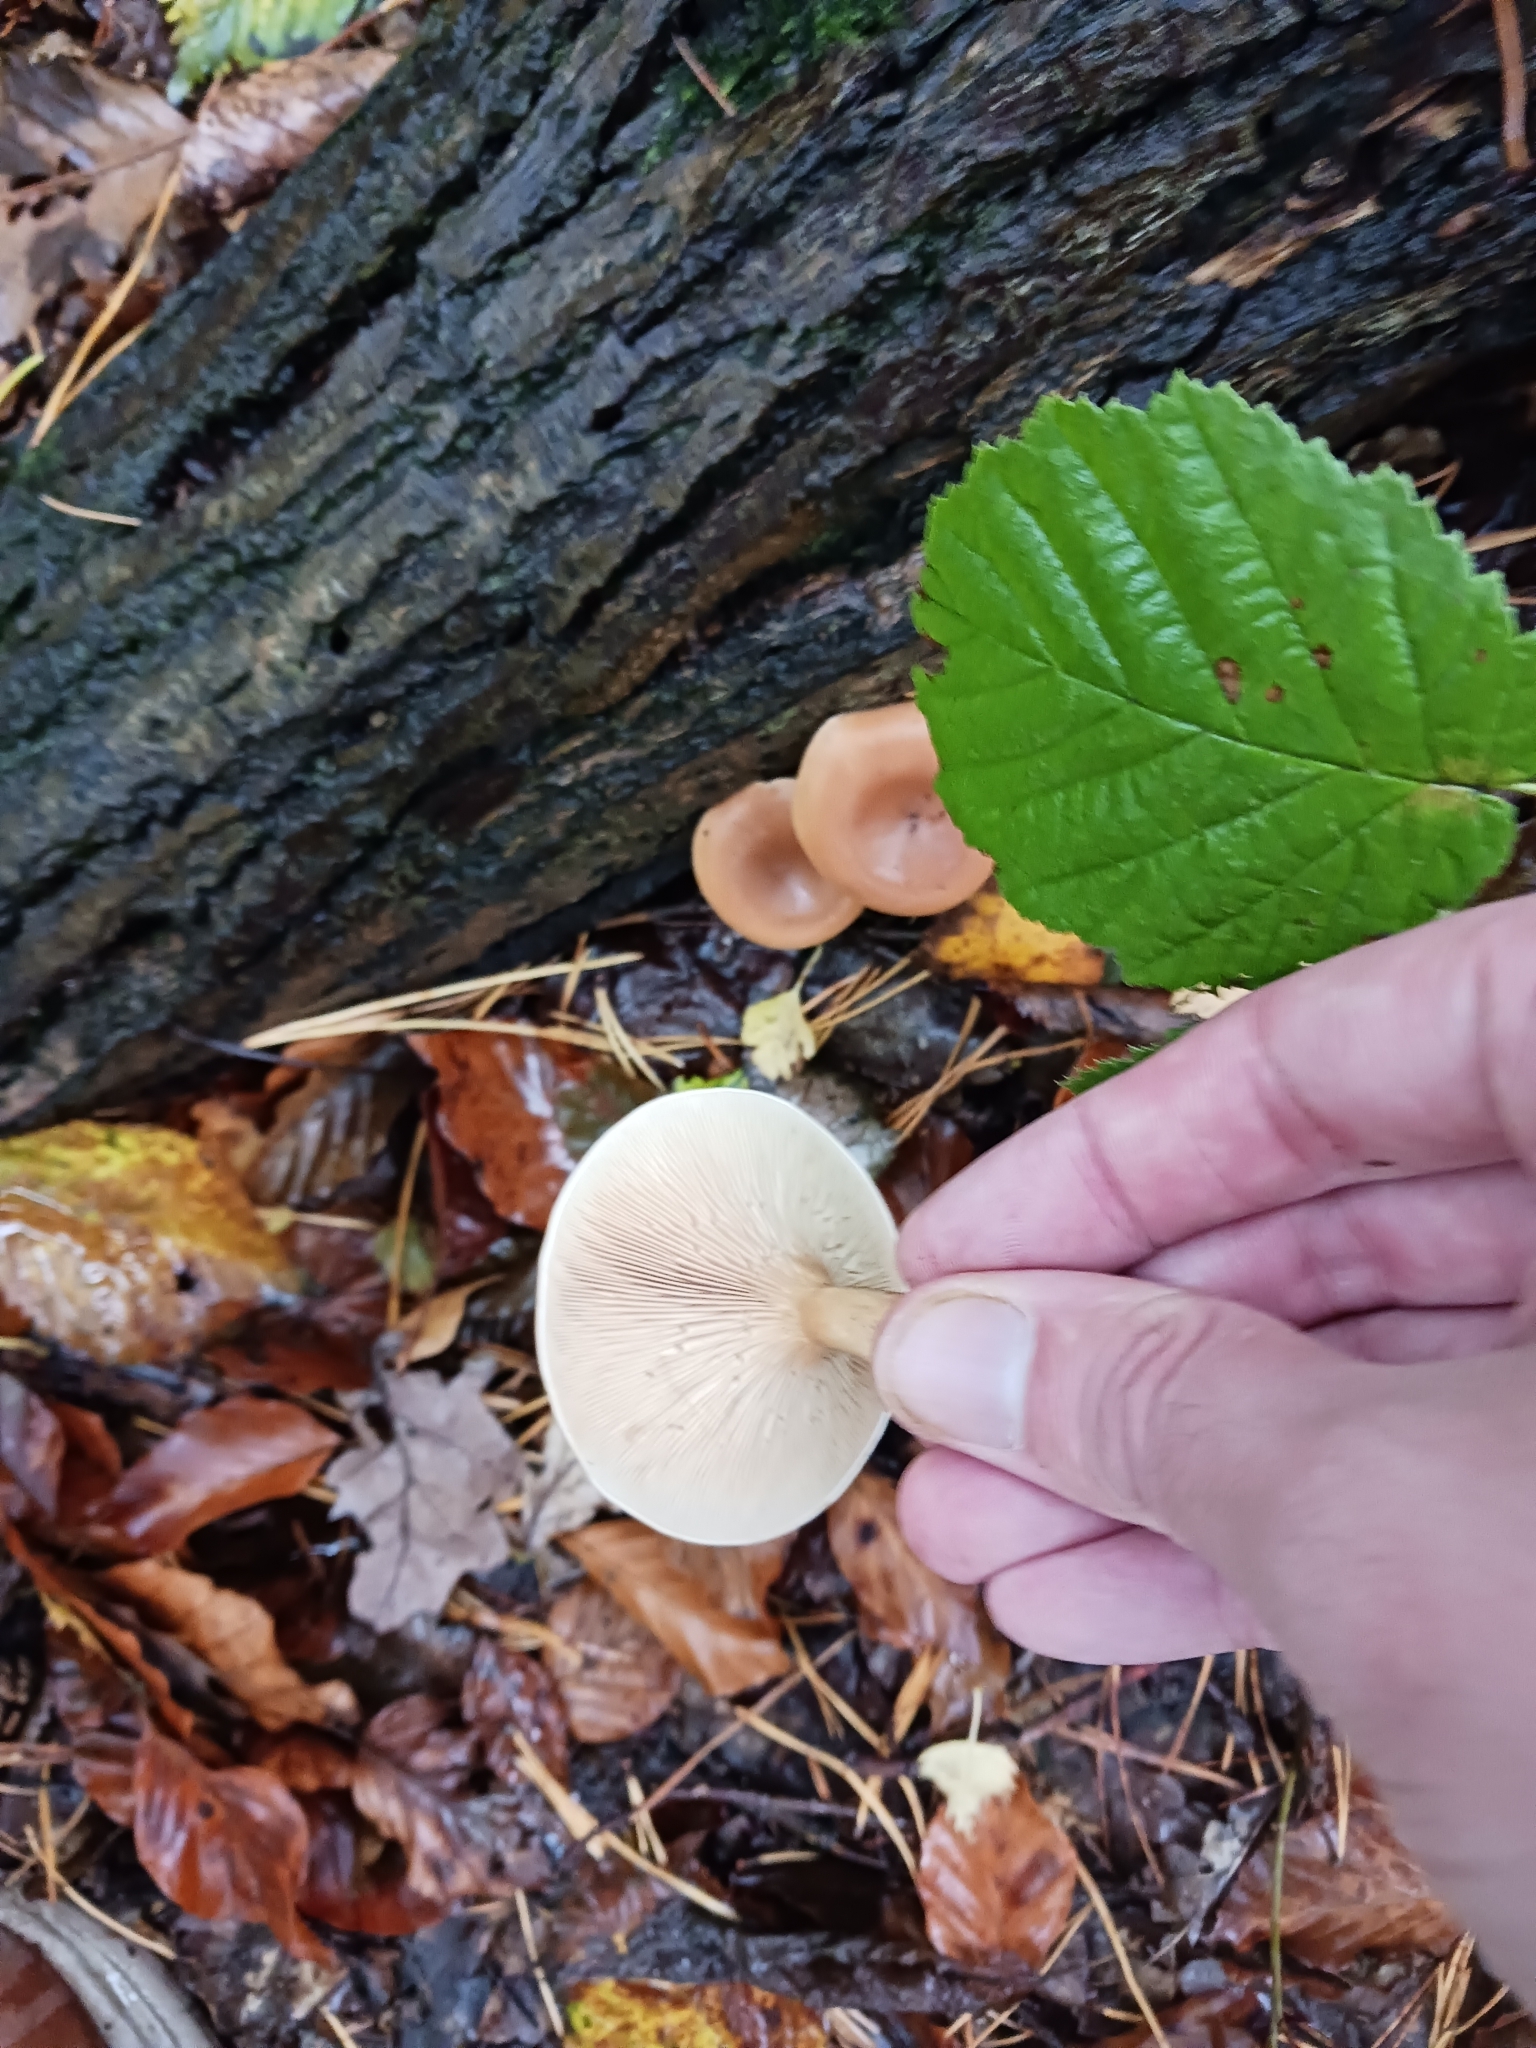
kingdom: Fungi
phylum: Basidiomycota
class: Agaricomycetes
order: Agaricales
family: Tricholomataceae
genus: Paralepista
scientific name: Paralepista flaccida
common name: Tawny funnel cap
